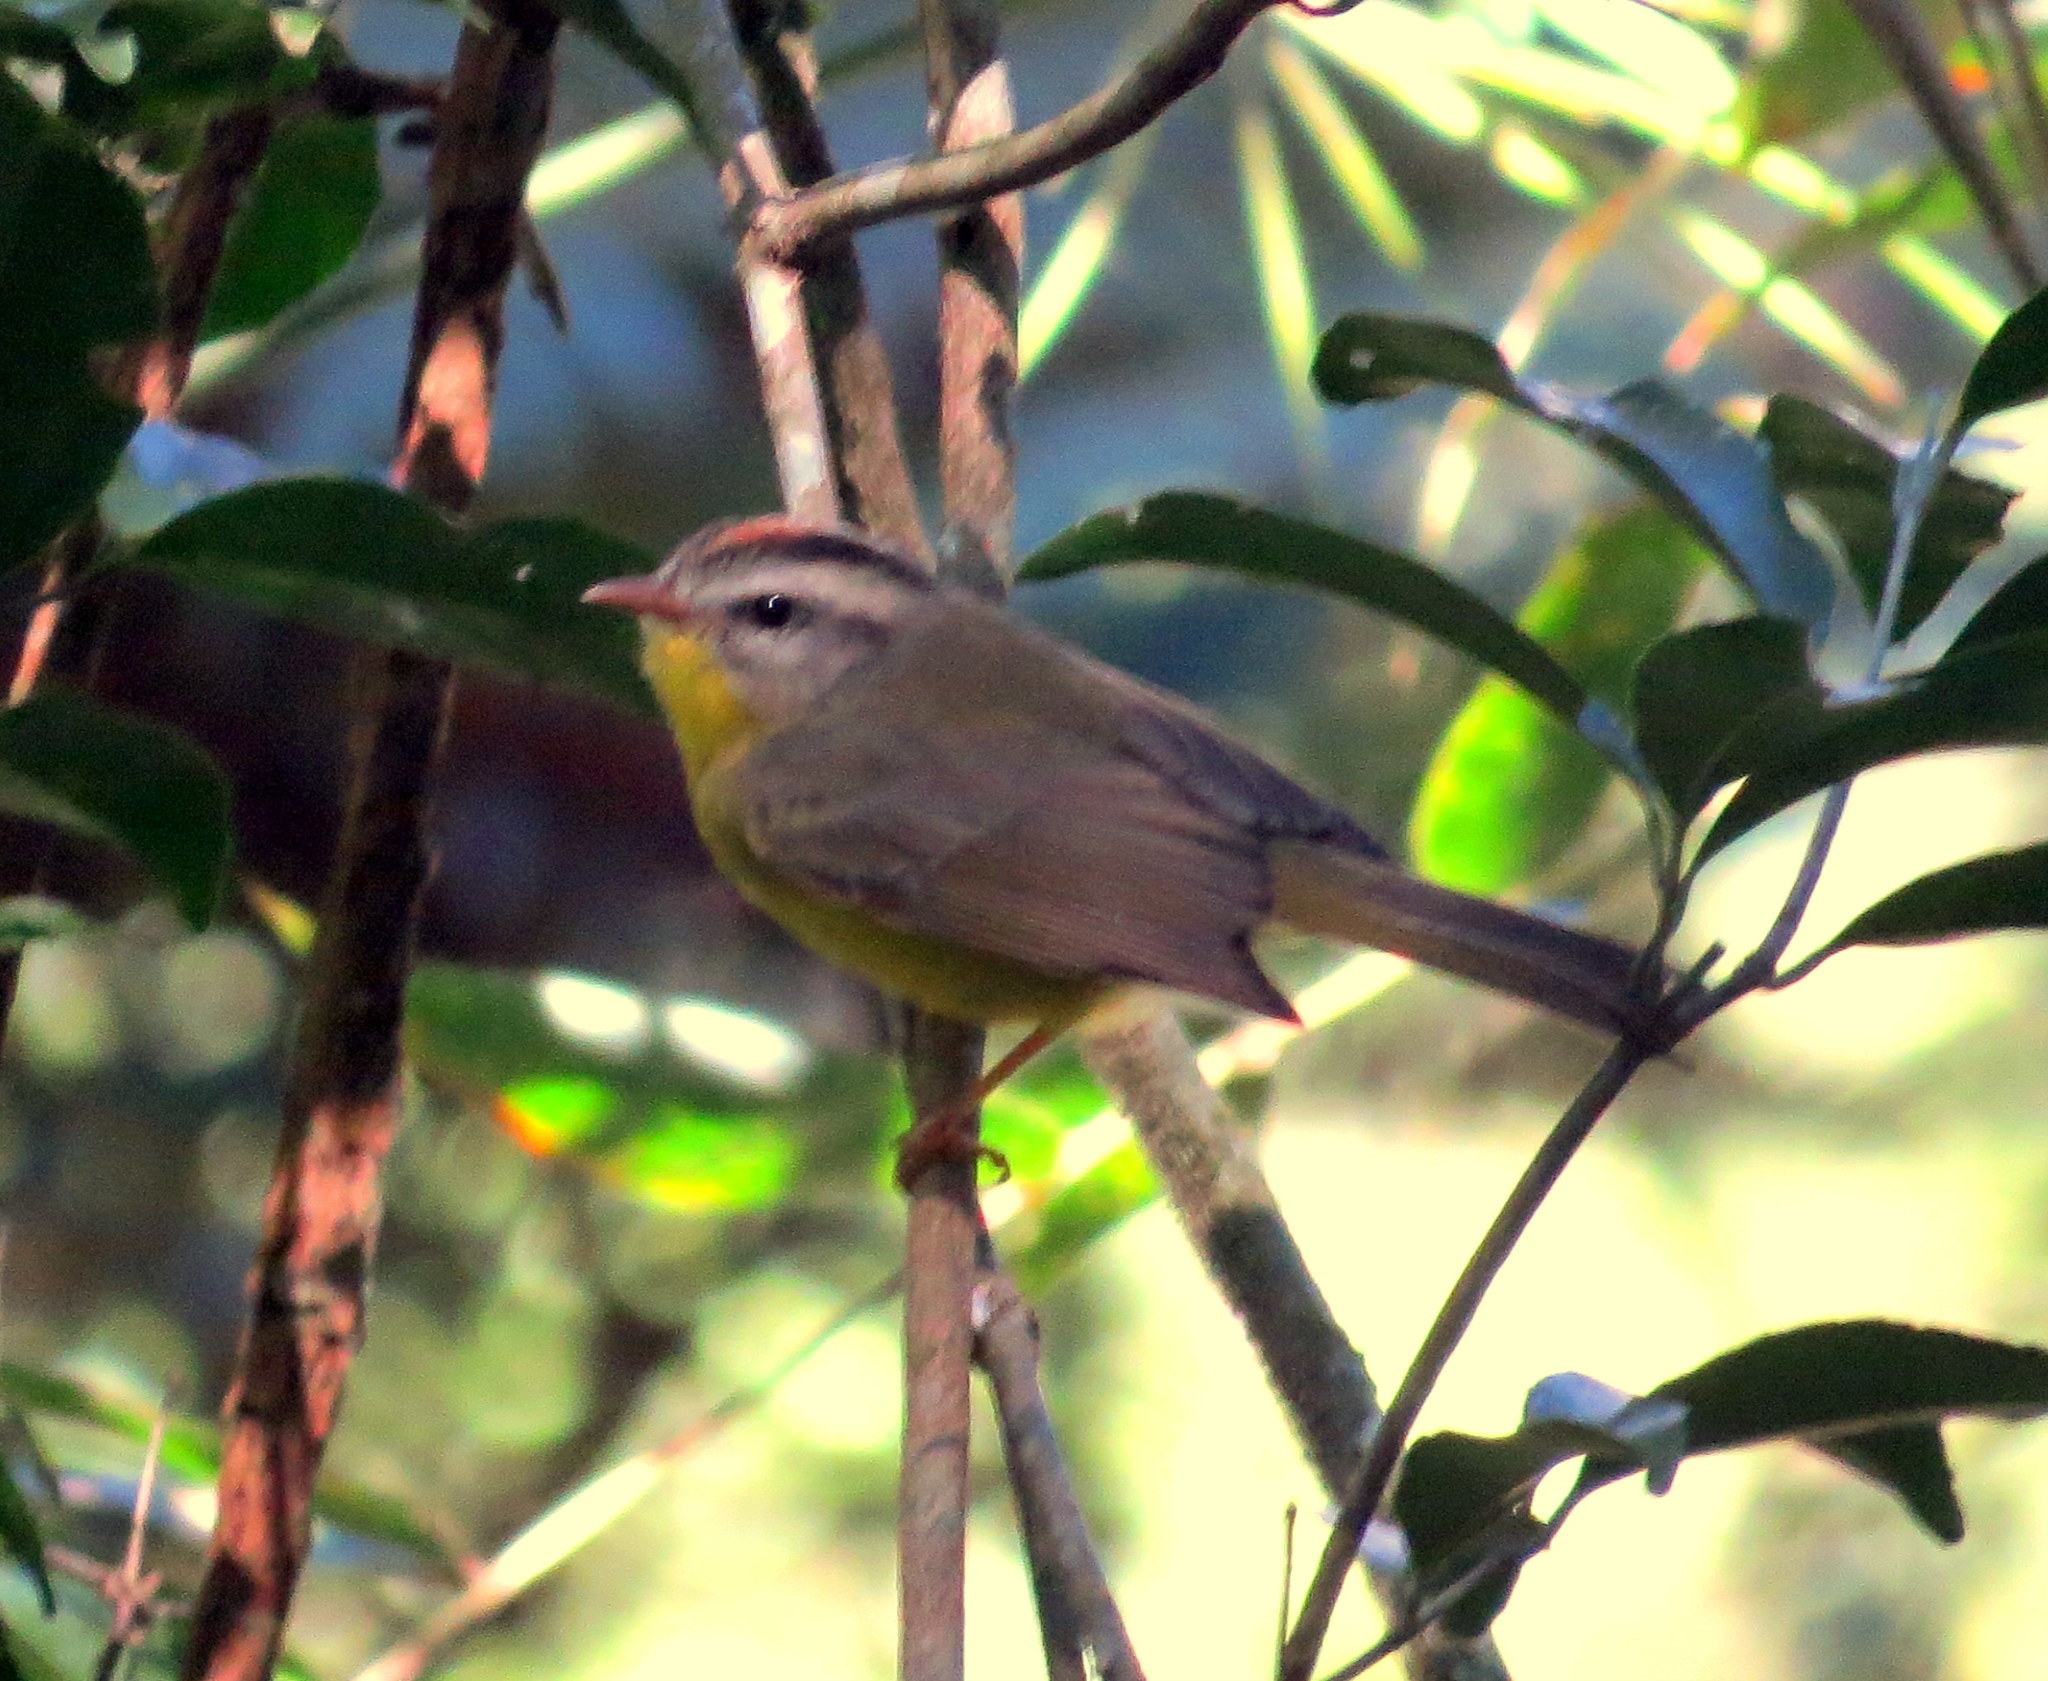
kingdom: Animalia
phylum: Chordata
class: Aves
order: Passeriformes
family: Parulidae
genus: Basileuterus
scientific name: Basileuterus culicivorus
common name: Golden-crowned warbler
